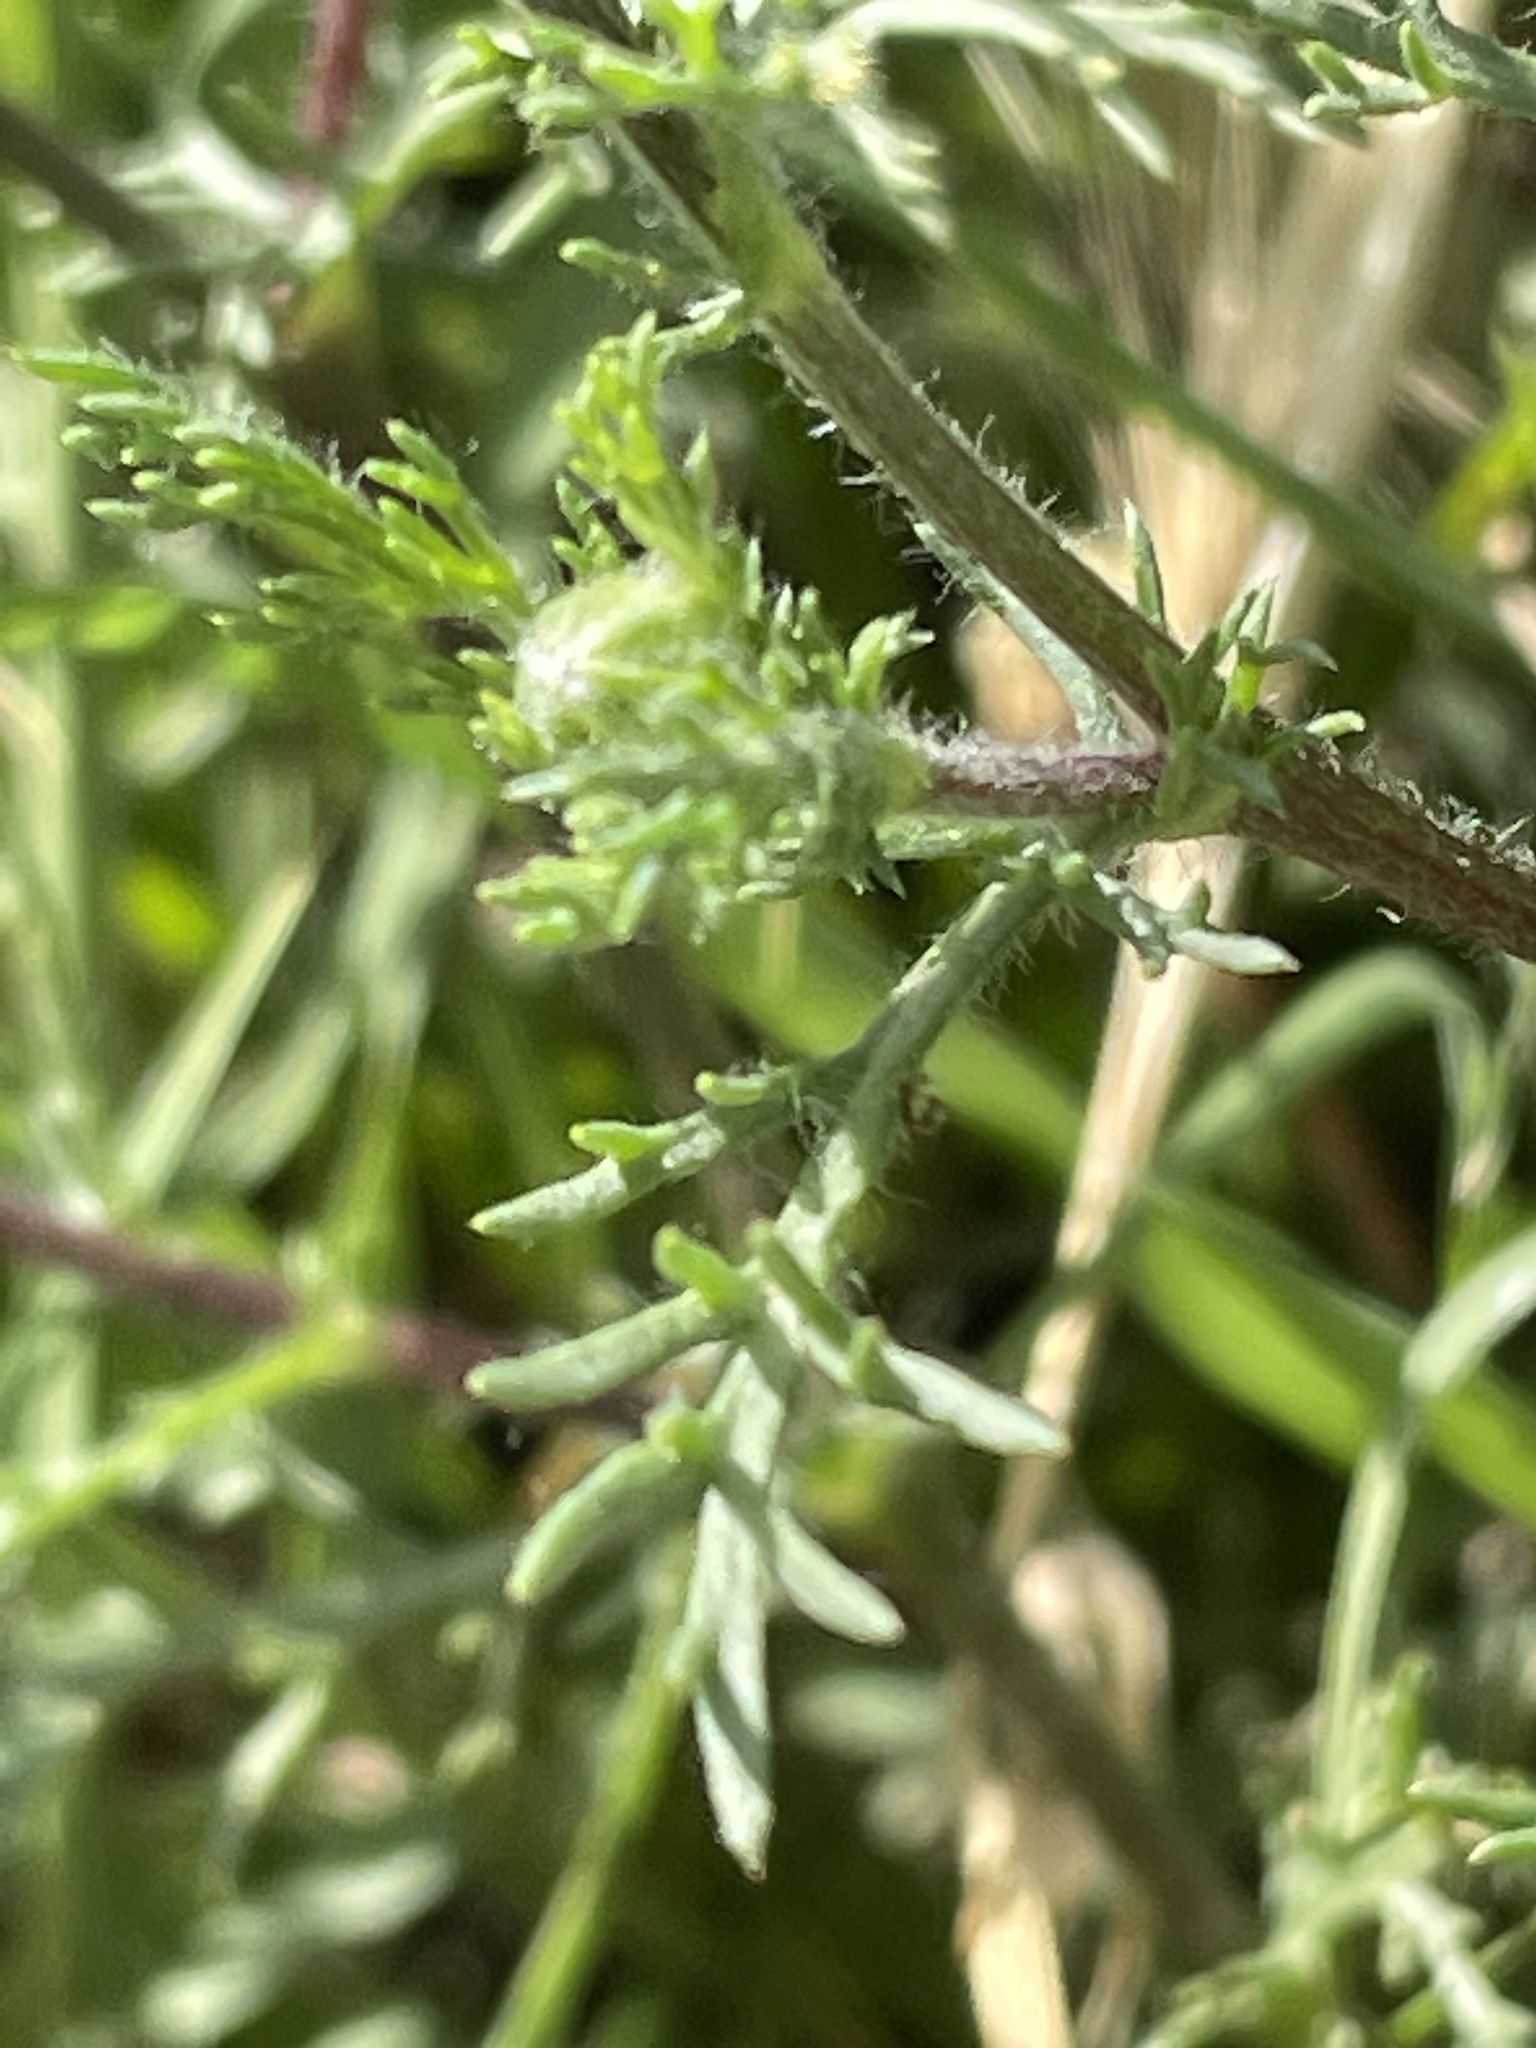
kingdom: Plantae
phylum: Tracheophyta
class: Magnoliopsida
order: Asterales
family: Asteraceae
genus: Anacyclus
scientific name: Anacyclus homogamos
